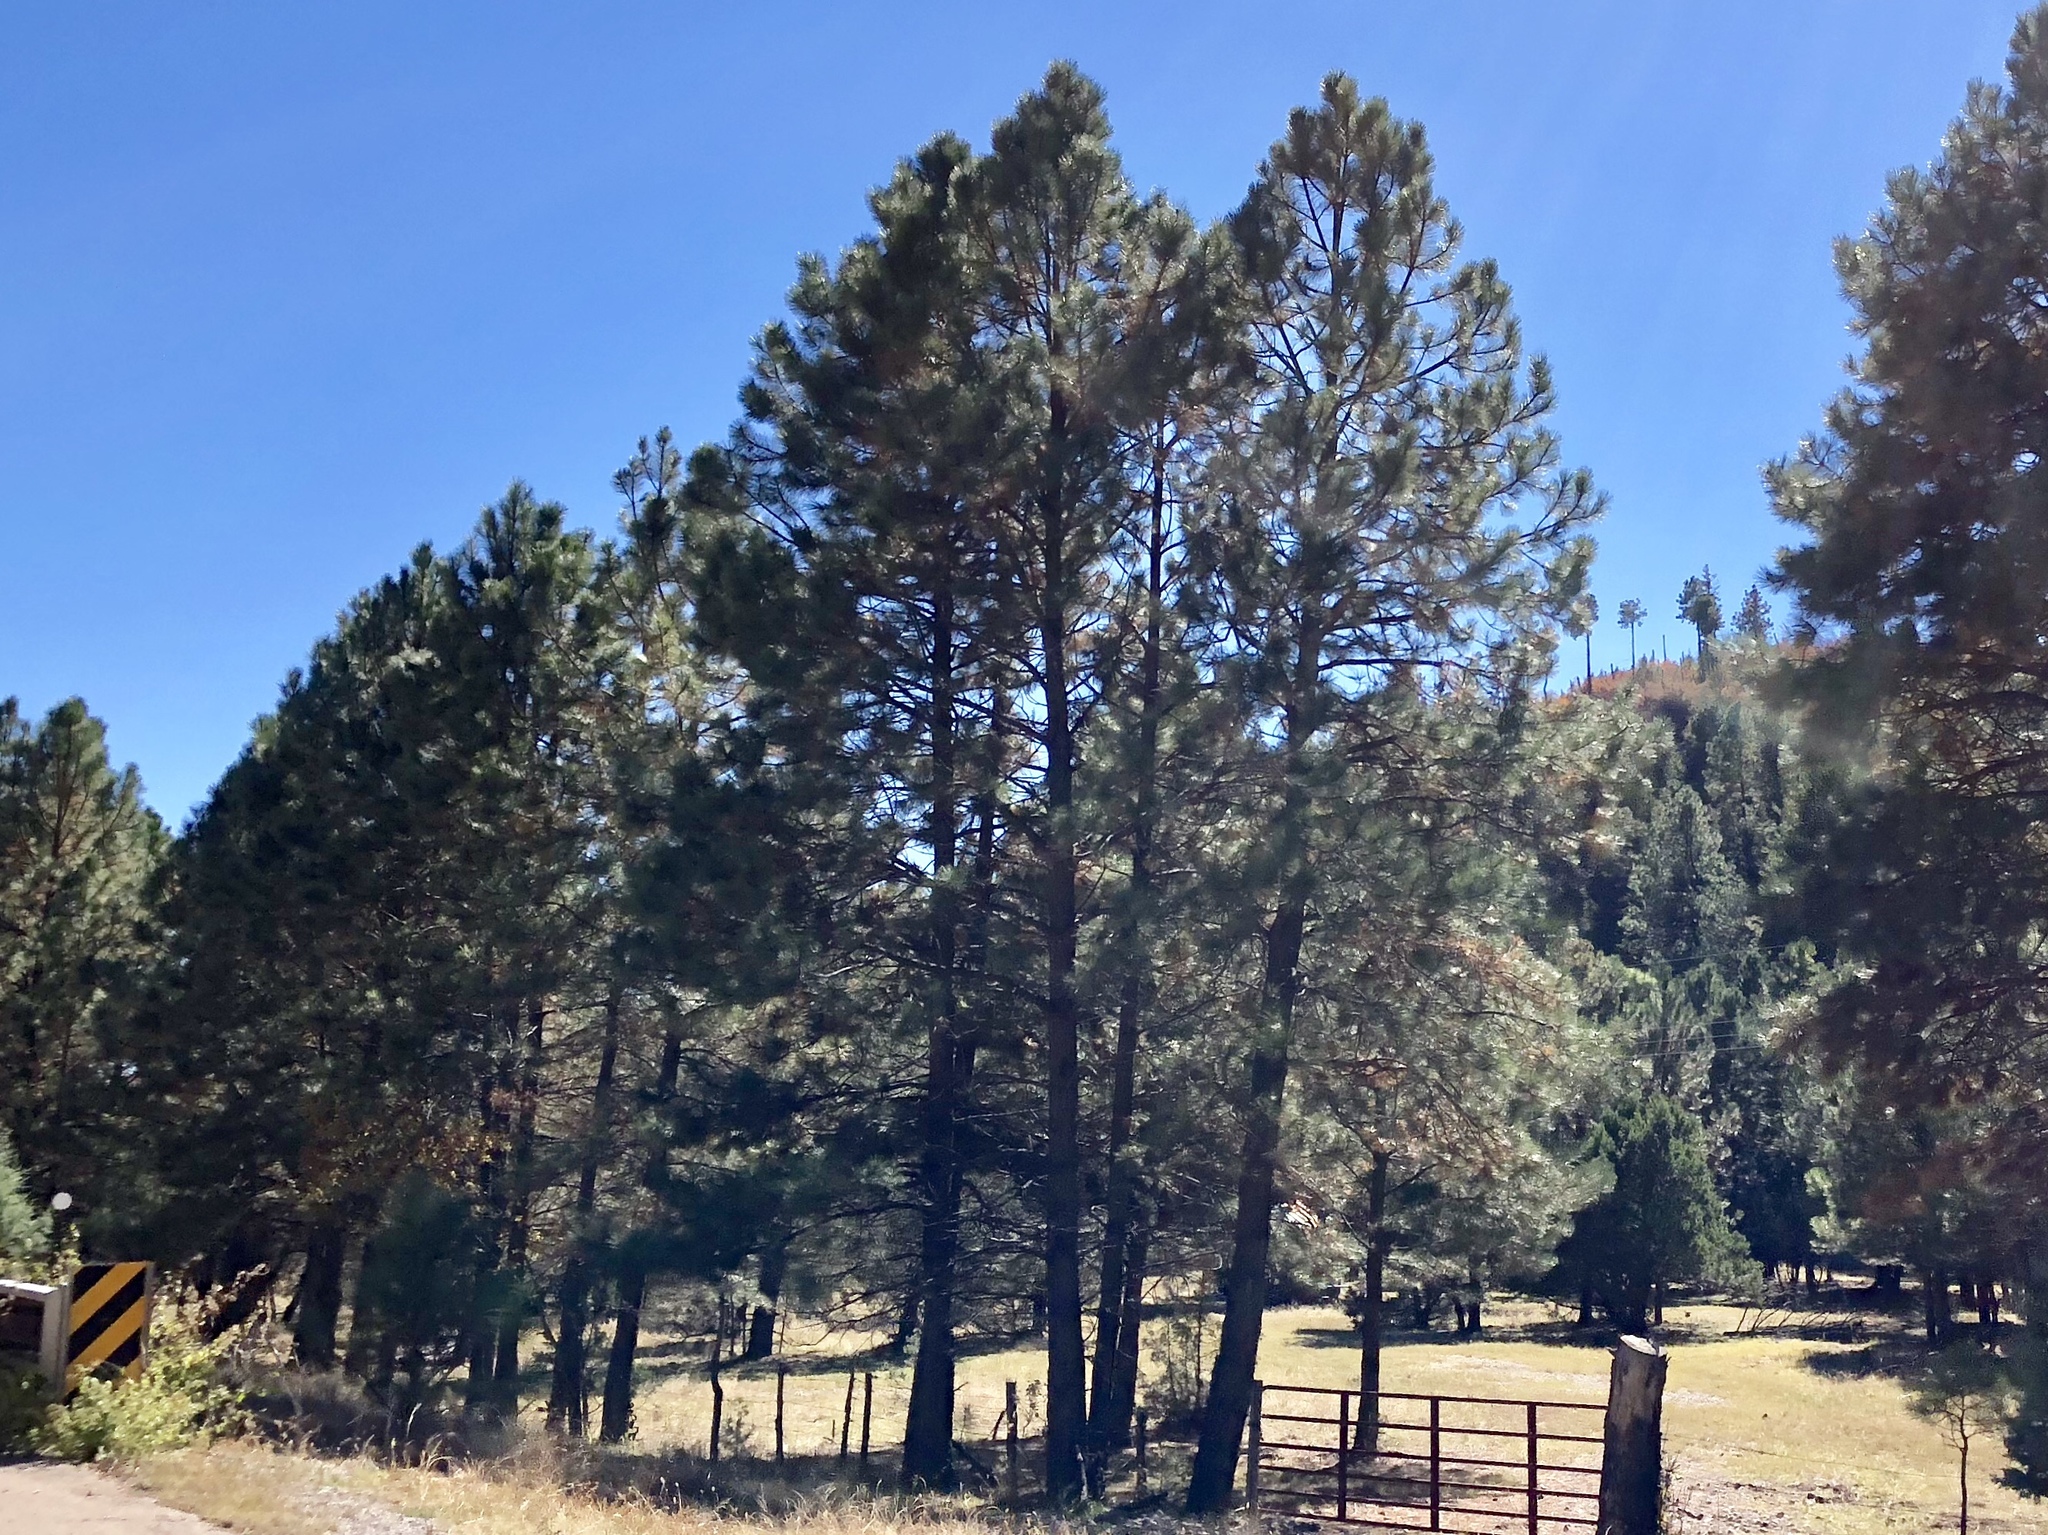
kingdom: Plantae
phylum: Tracheophyta
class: Pinopsida
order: Pinales
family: Pinaceae
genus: Pinus
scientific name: Pinus ponderosa
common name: Western yellow-pine
